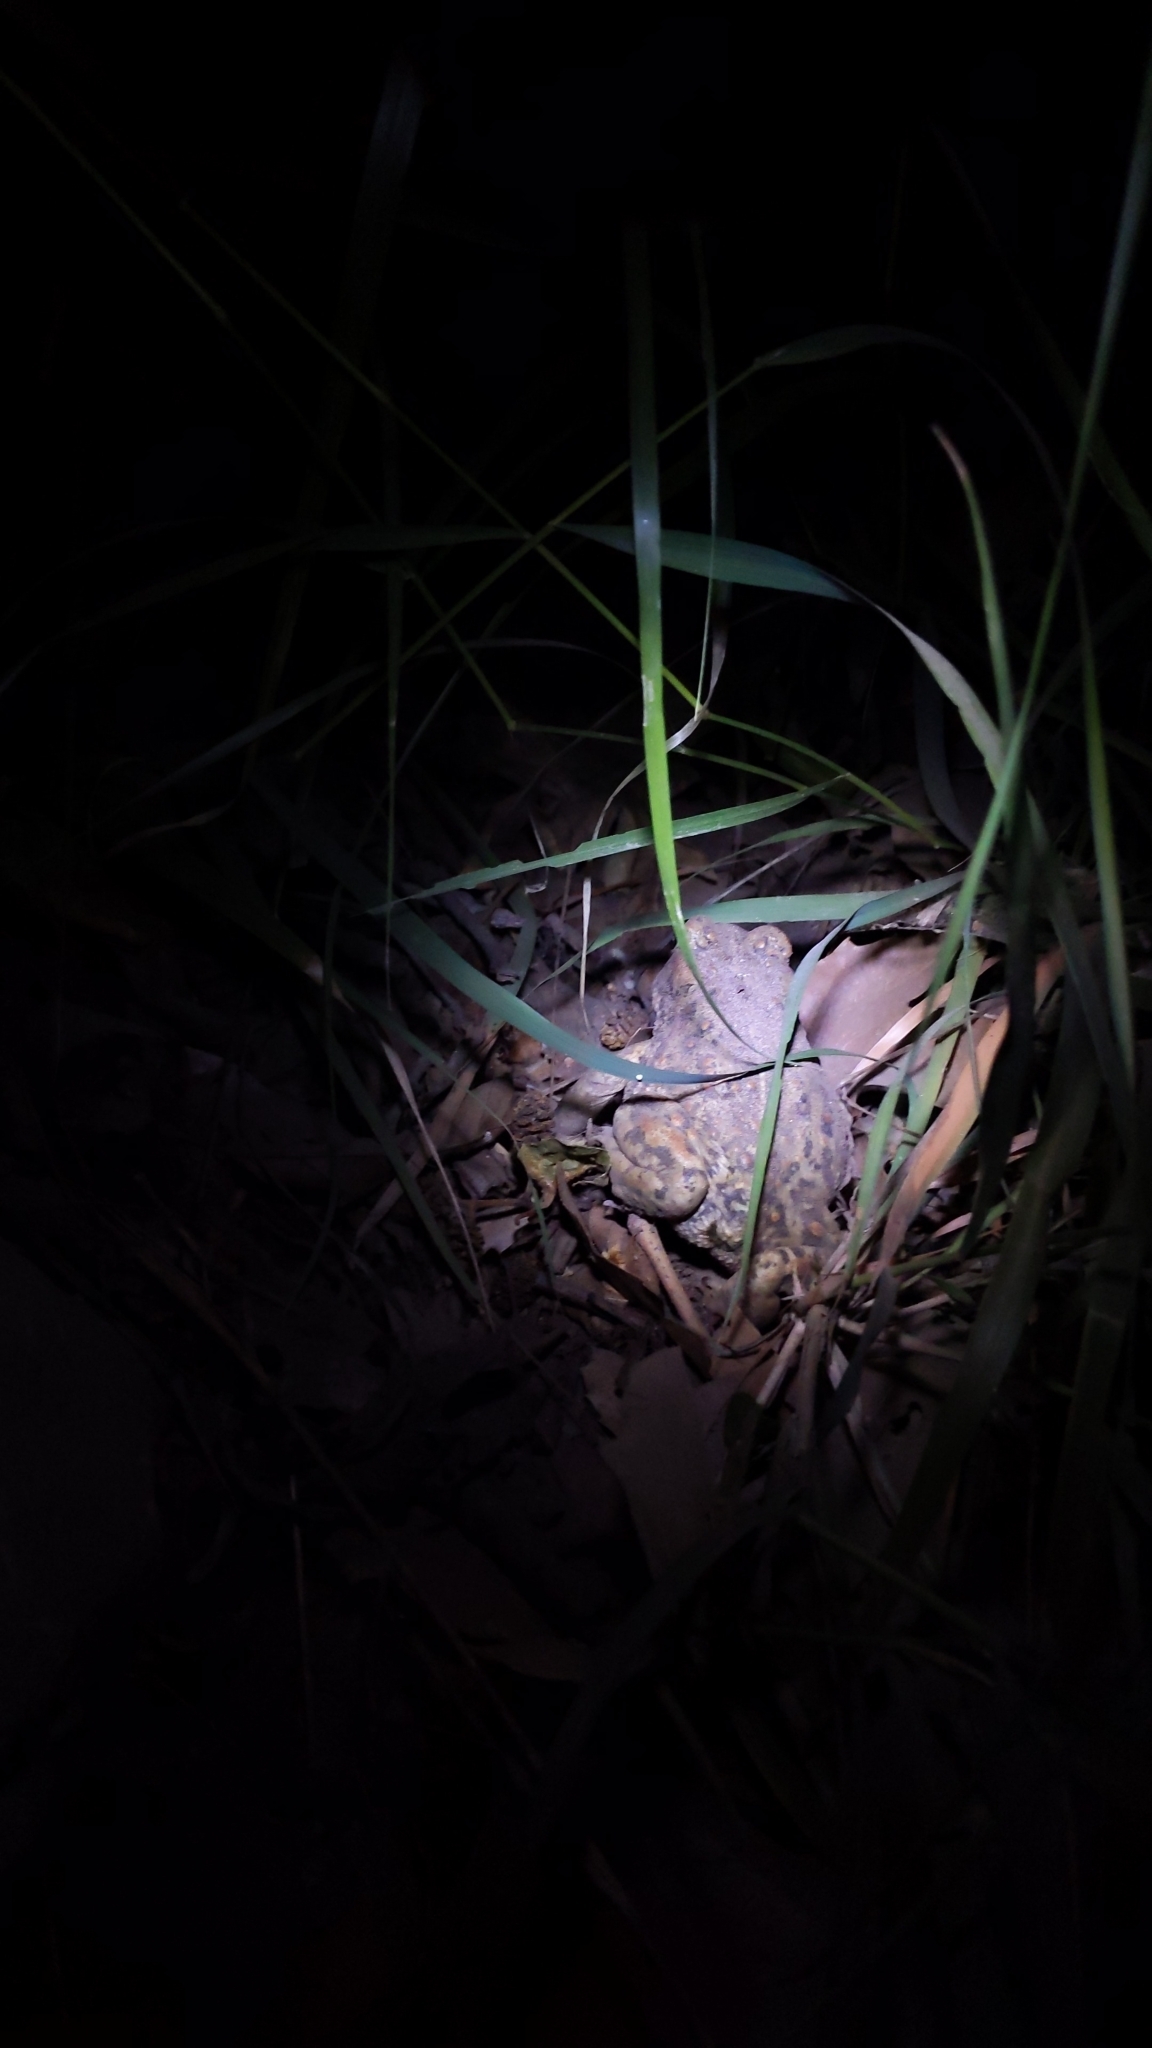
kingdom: Animalia
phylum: Chordata
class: Amphibia
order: Anura
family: Bufonidae
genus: Anaxyrus
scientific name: Anaxyrus boreas
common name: Western toad
